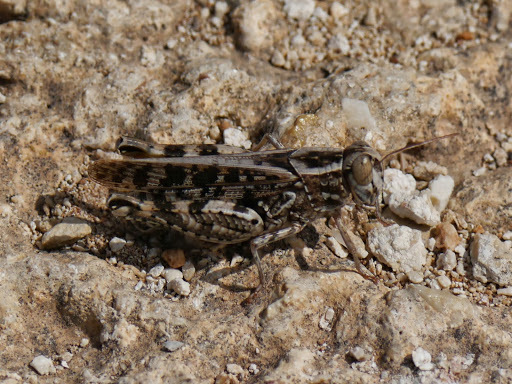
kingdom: Animalia
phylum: Arthropoda
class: Insecta
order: Orthoptera
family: Acrididae
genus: Calliptamus
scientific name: Calliptamus barbarus
